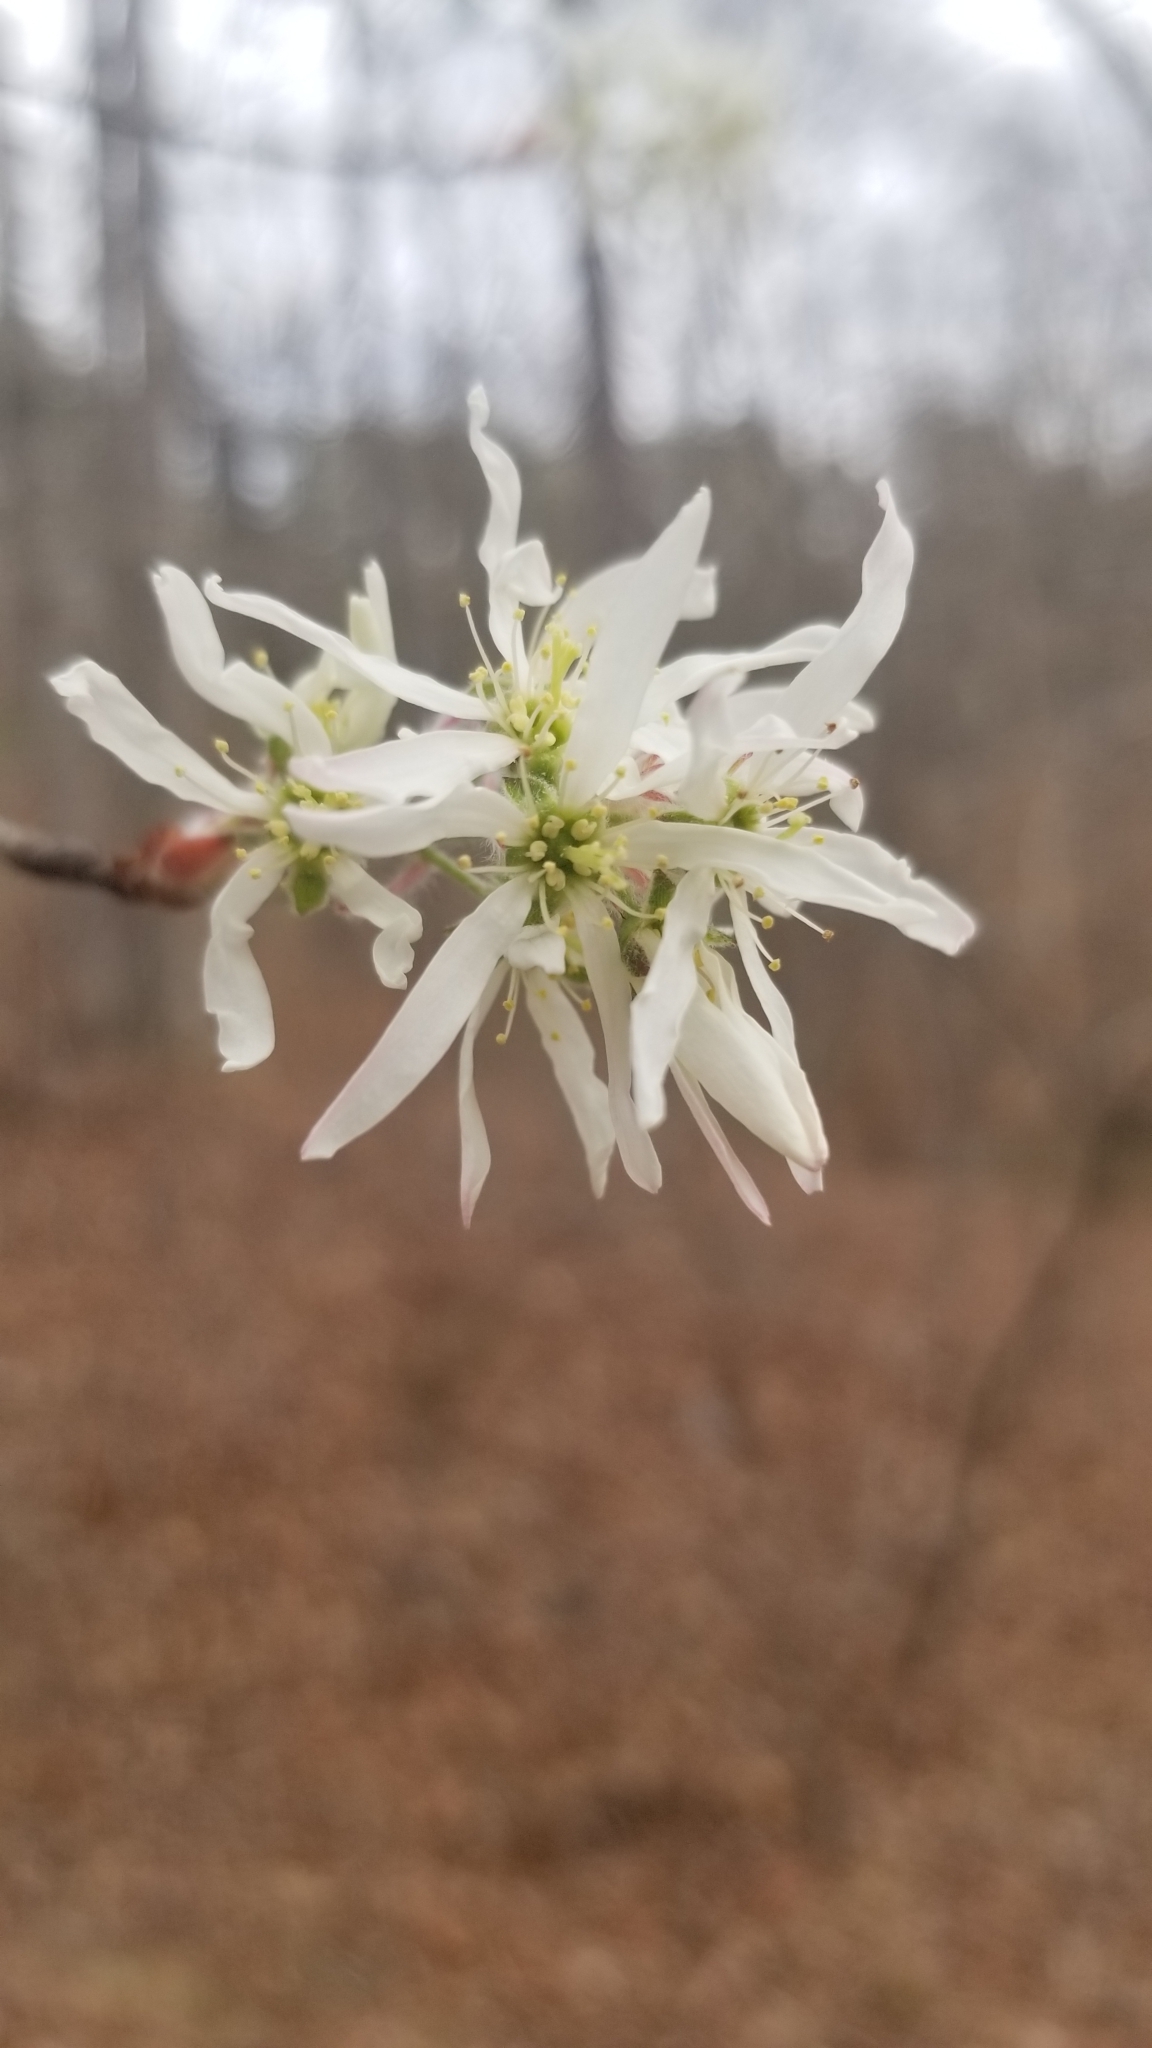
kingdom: Plantae
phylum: Tracheophyta
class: Magnoliopsida
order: Rosales
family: Rosaceae
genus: Amelanchier
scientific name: Amelanchier arborea
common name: Downy serviceberry
